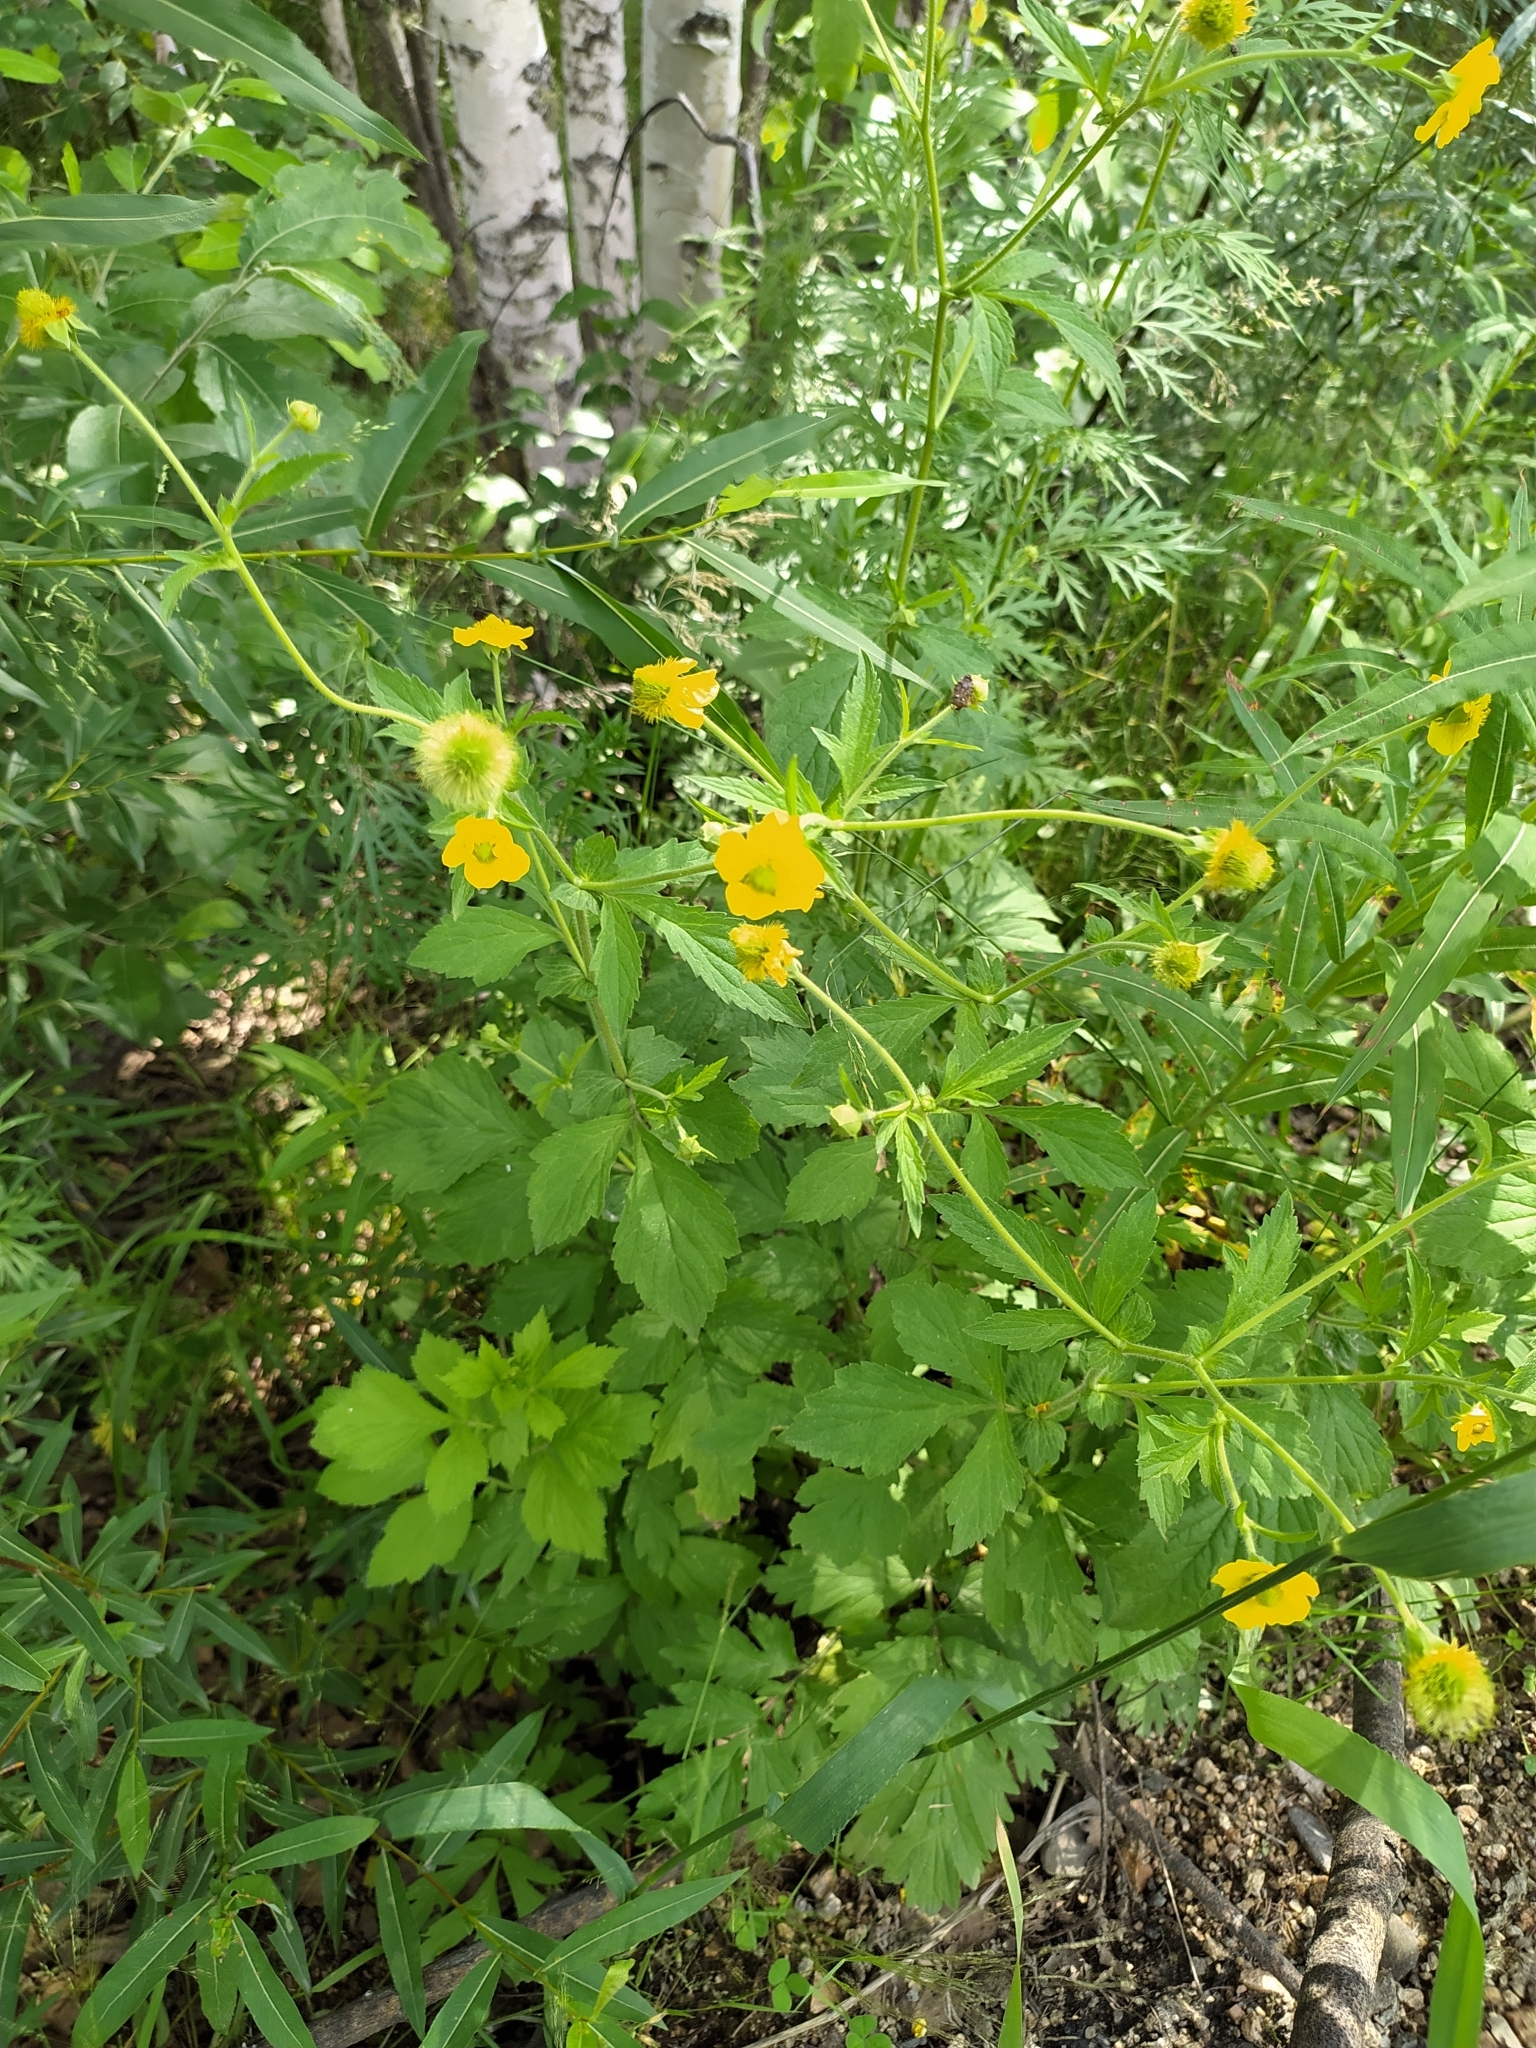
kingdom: Plantae
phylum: Tracheophyta
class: Magnoliopsida
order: Rosales
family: Rosaceae
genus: Geum
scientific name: Geum aleppicum
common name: Yellow avens
